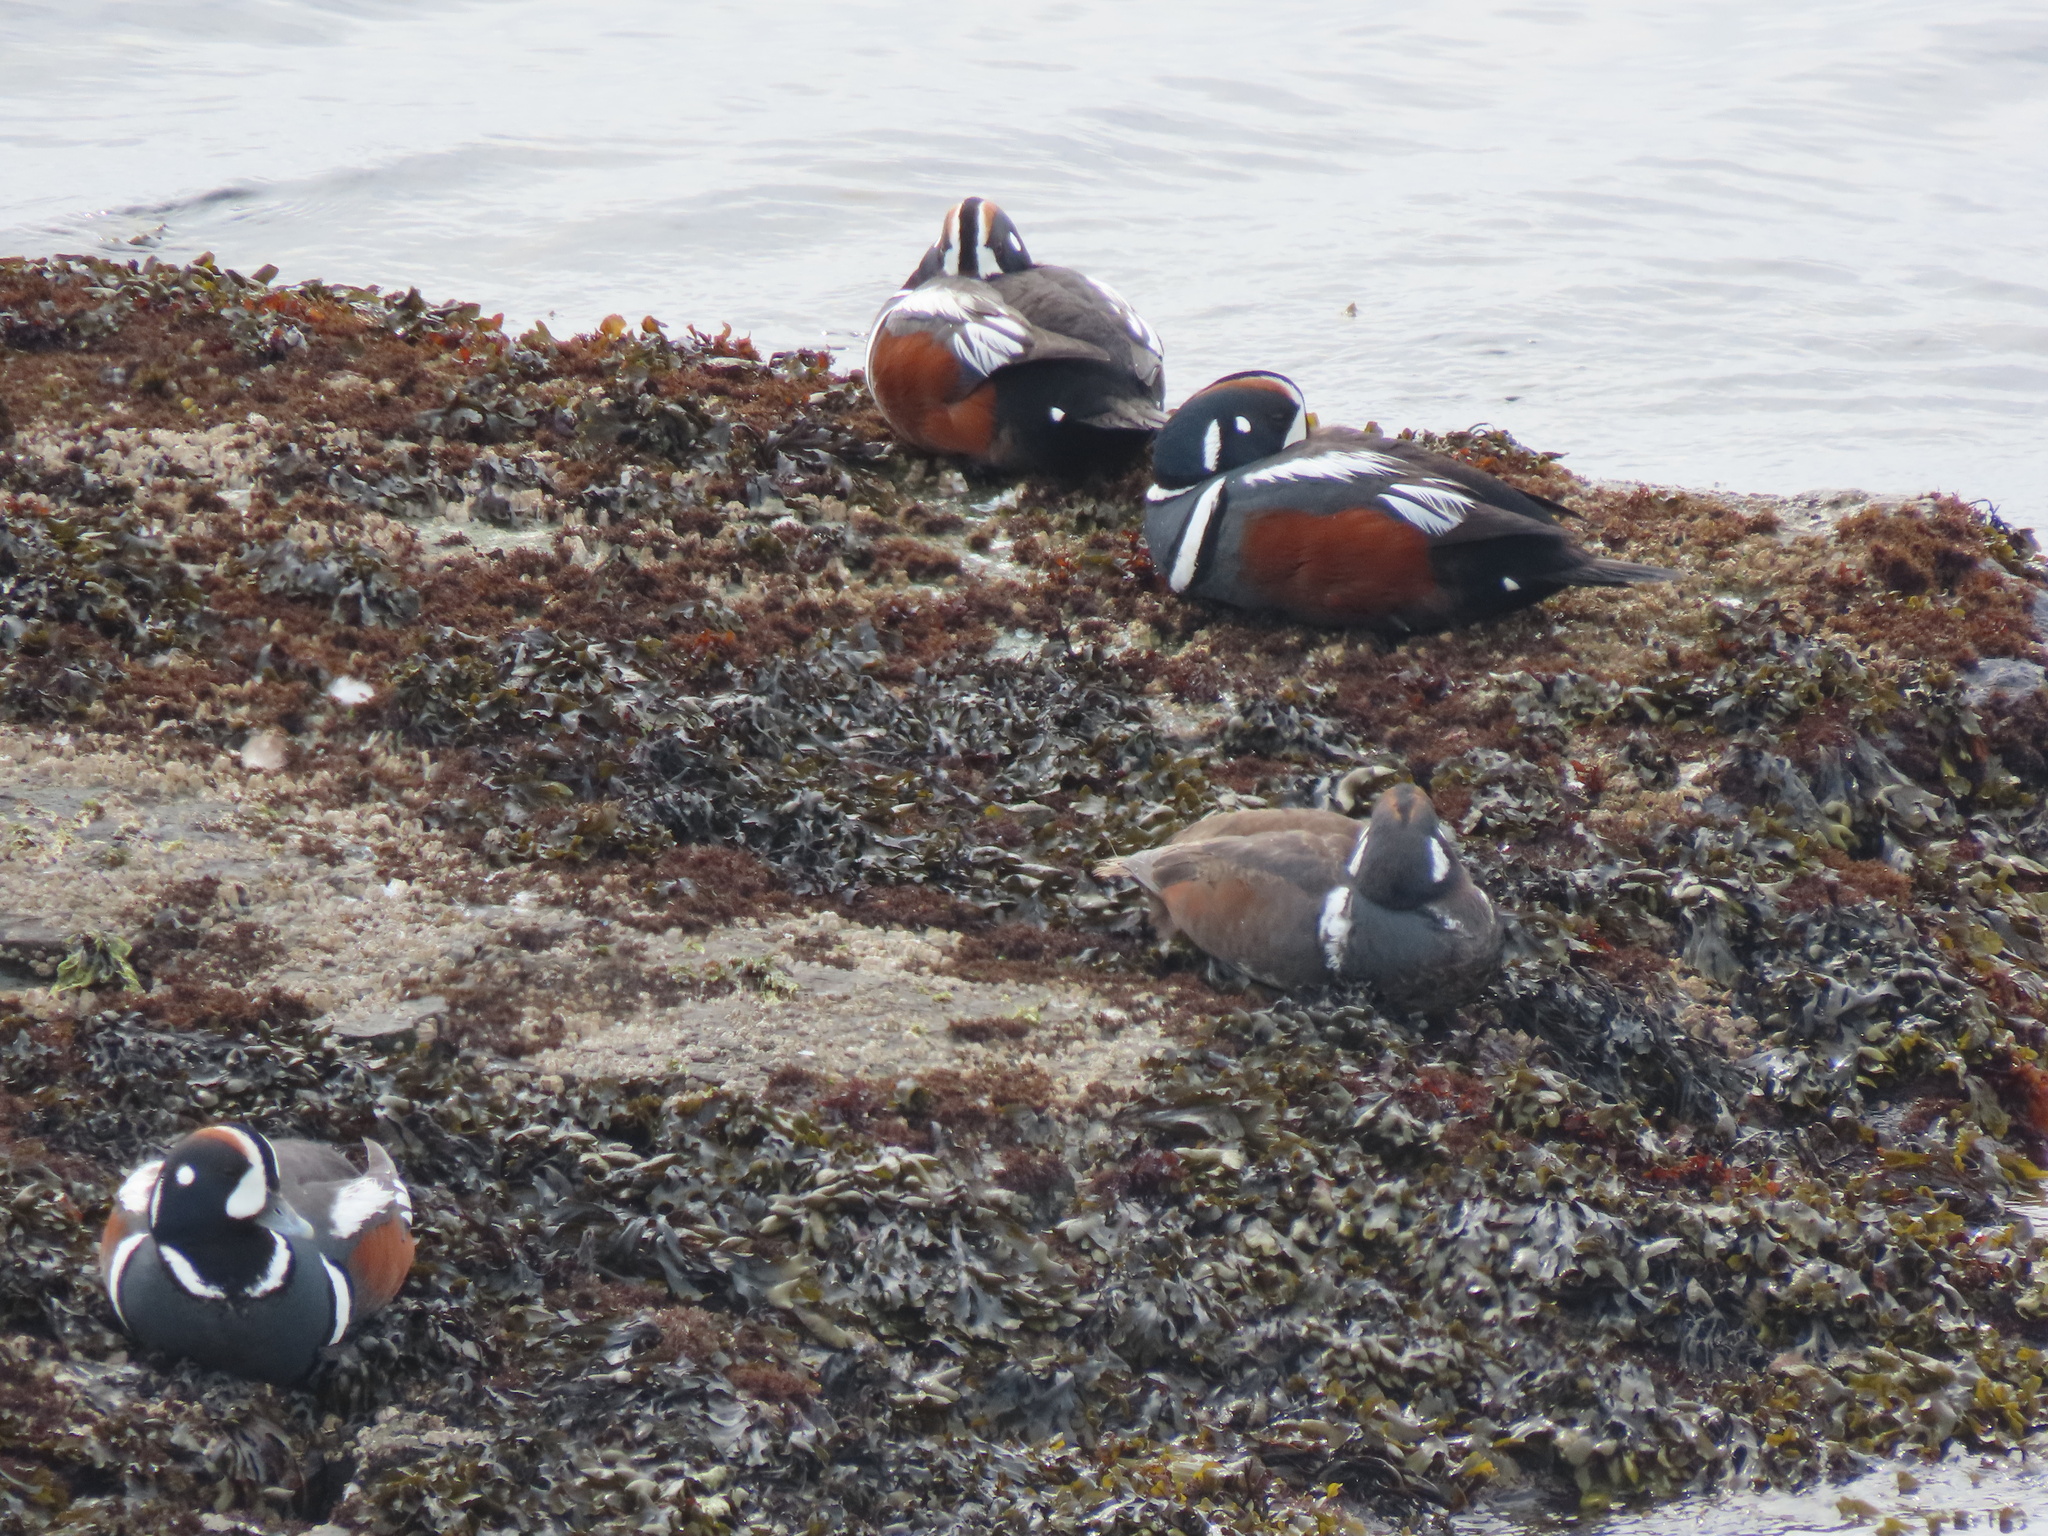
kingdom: Animalia
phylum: Chordata
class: Aves
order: Anseriformes
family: Anatidae
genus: Histrionicus
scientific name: Histrionicus histrionicus
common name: Harlequin duck
